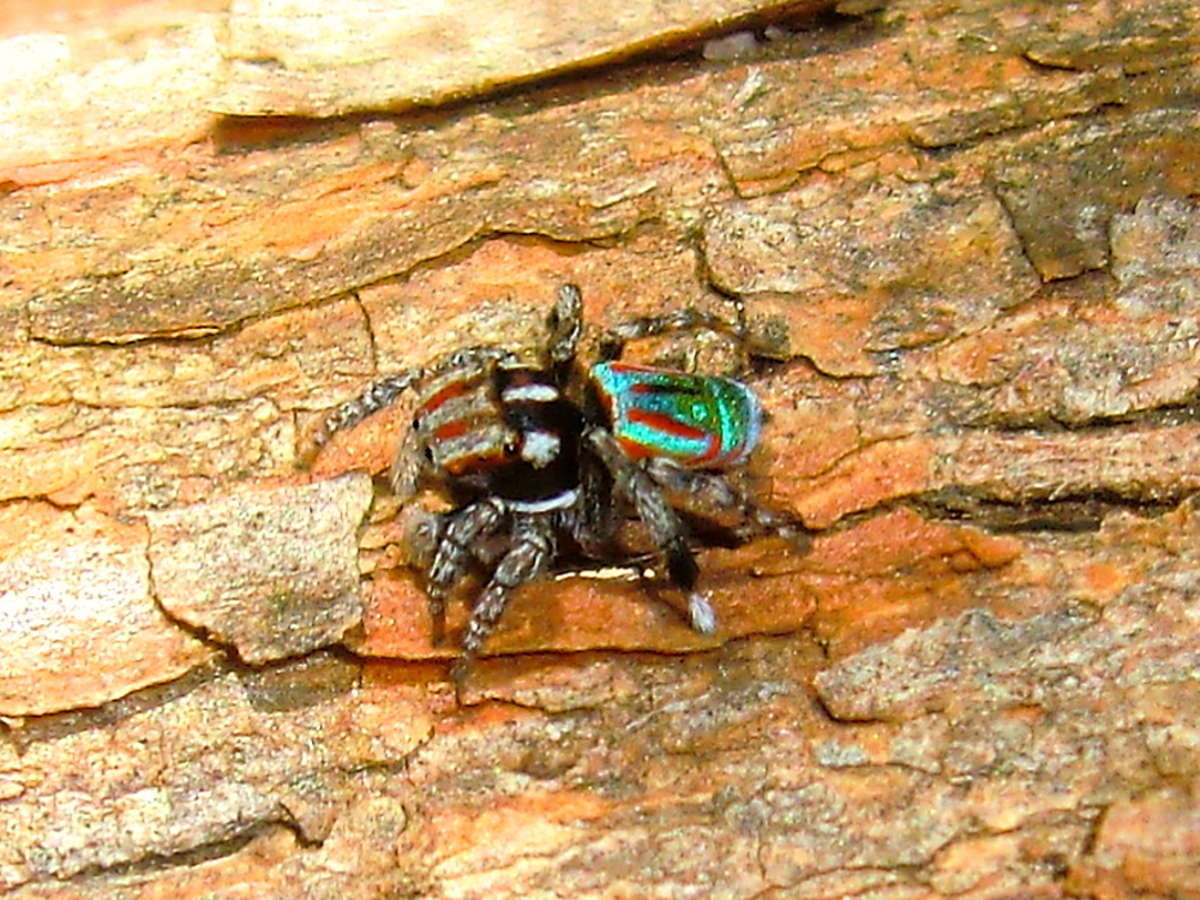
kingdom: Animalia
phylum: Arthropoda
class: Arachnida
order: Araneae
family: Salticidae
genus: Maratus
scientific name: Maratus volans
